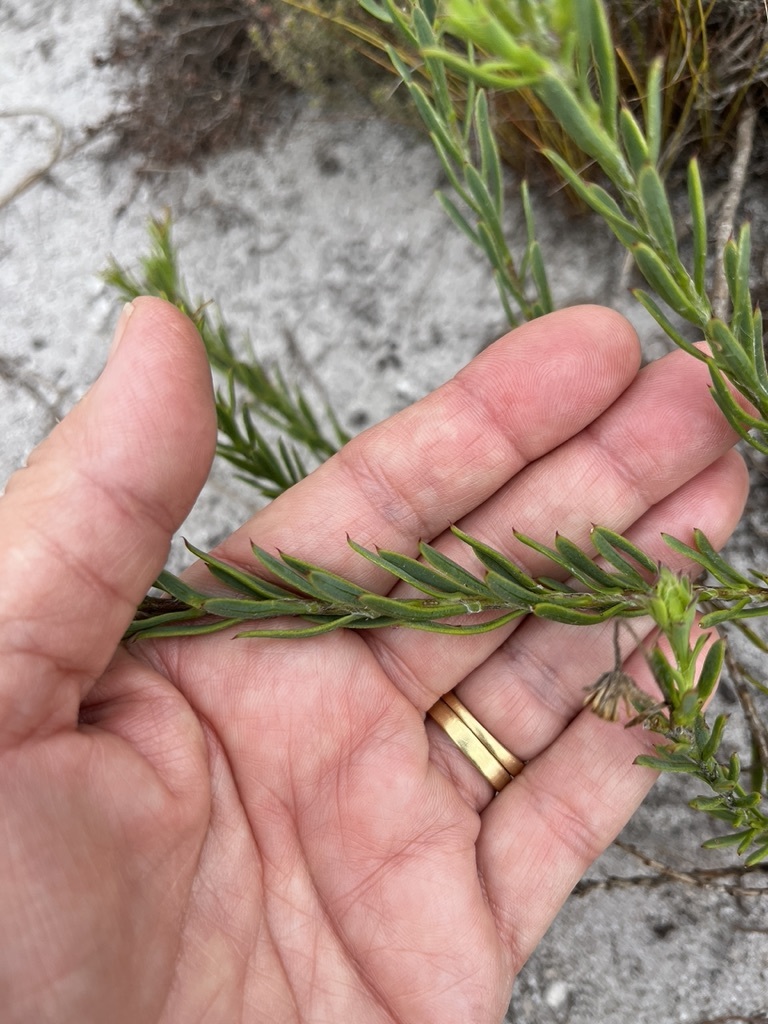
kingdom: Plantae
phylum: Tracheophyta
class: Magnoliopsida
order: Asterales
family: Asteraceae
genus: Osteospermum
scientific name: Osteospermum polygaloides
